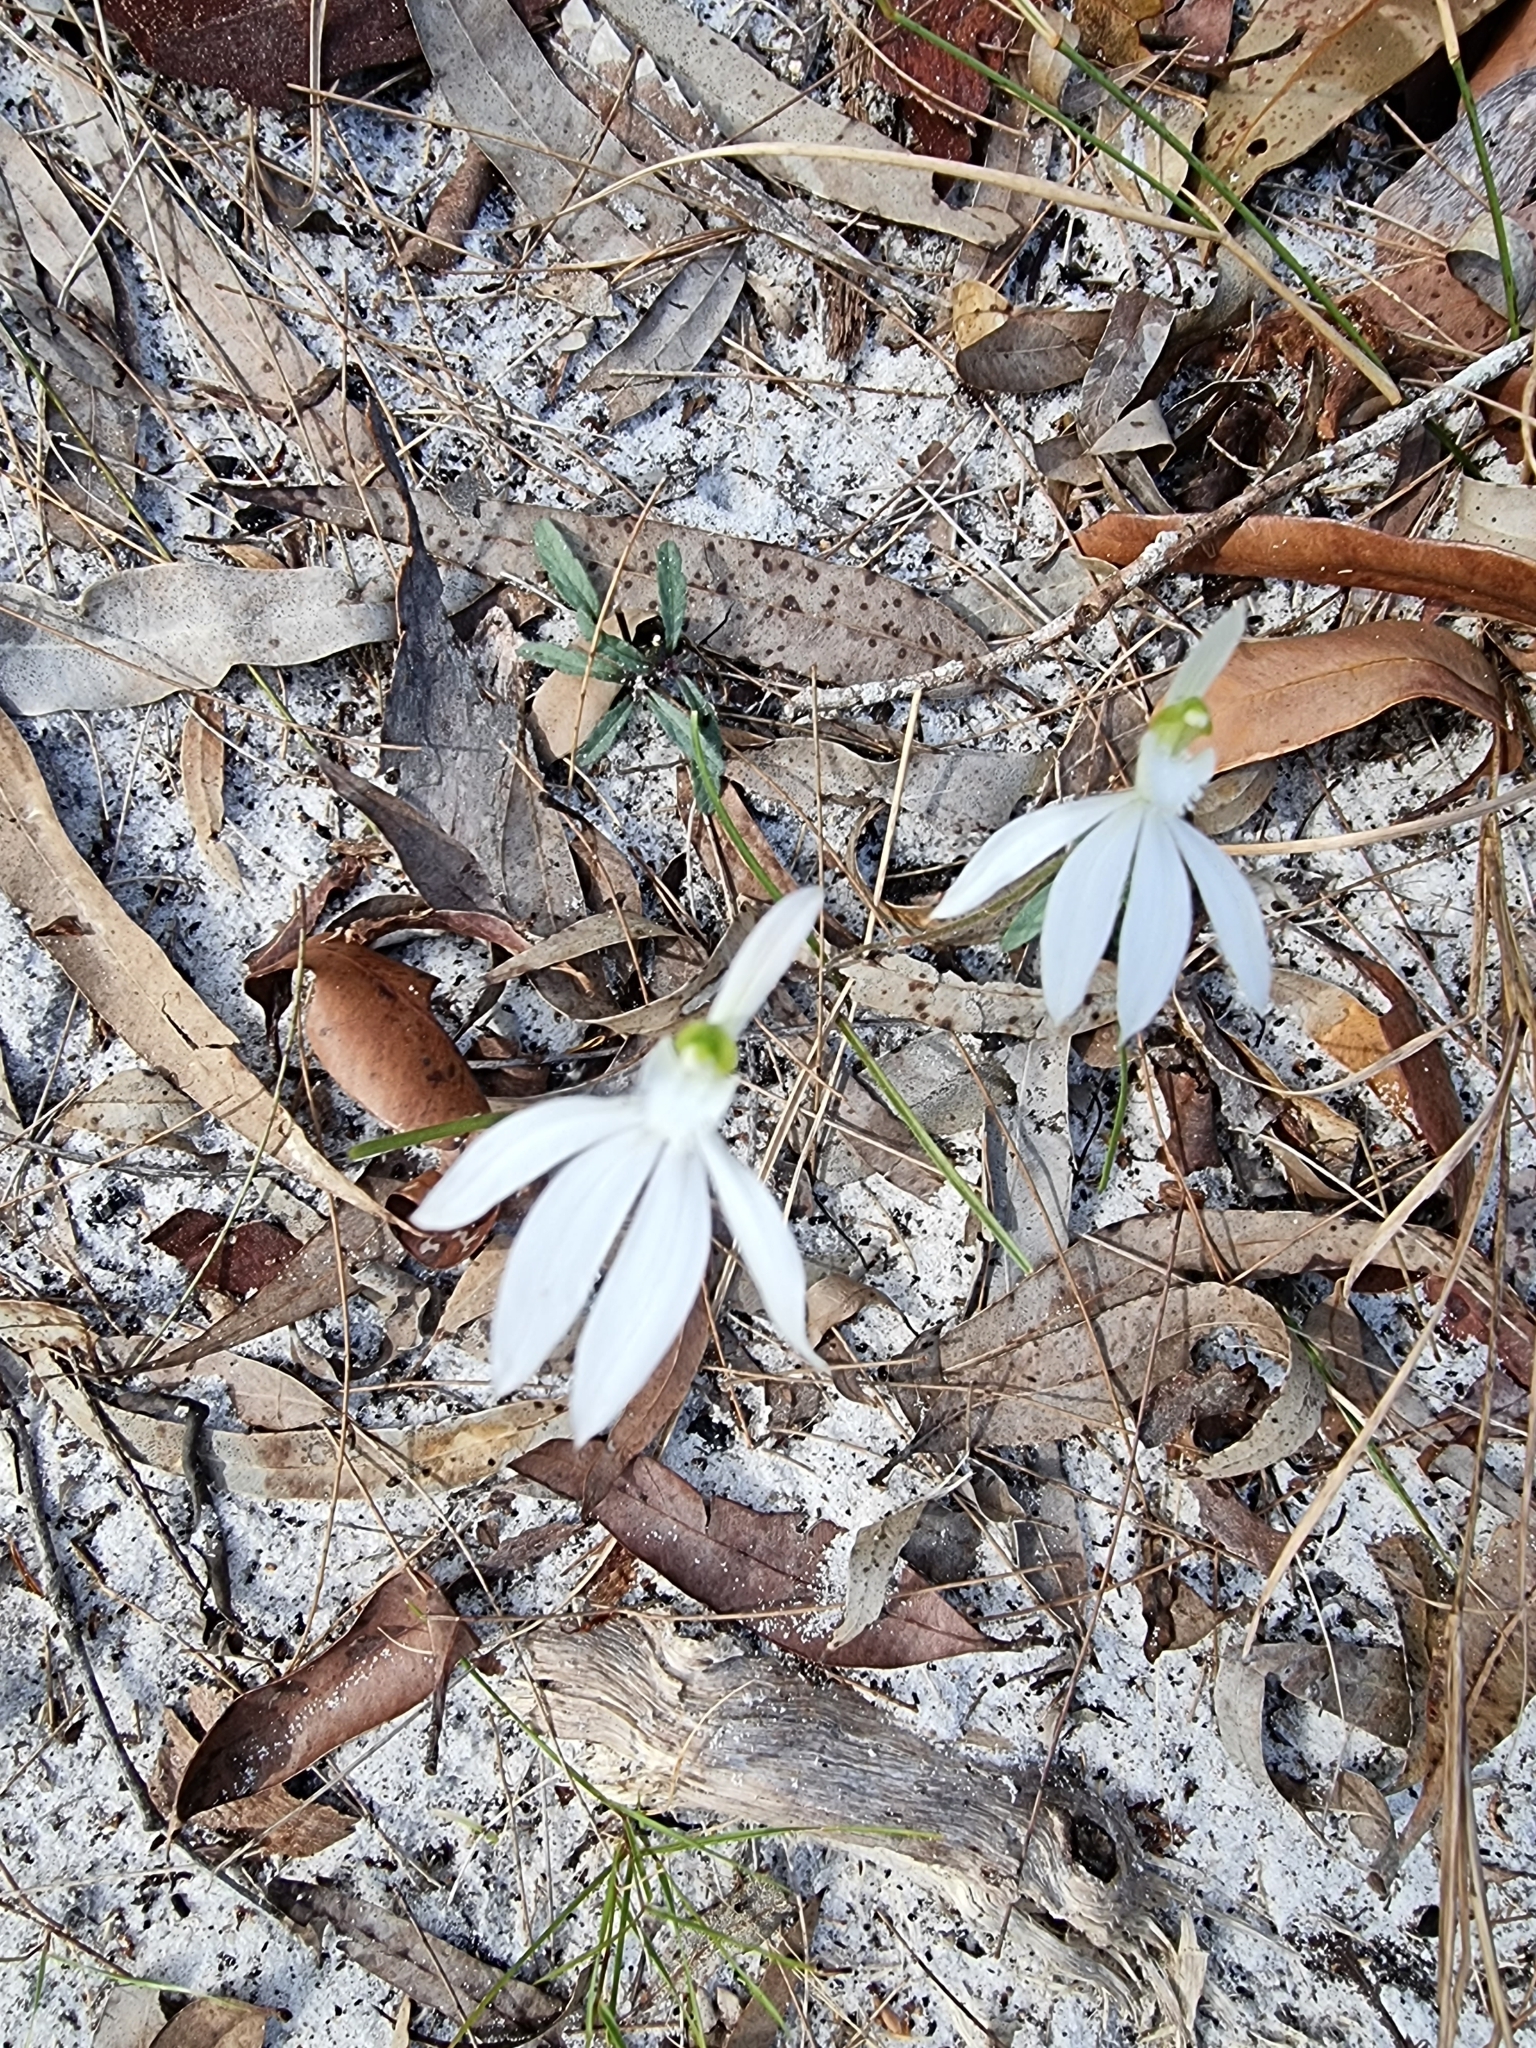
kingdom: Plantae
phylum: Tracheophyta
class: Liliopsida
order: Asparagales
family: Orchidaceae
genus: Caladenia
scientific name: Caladenia picta
